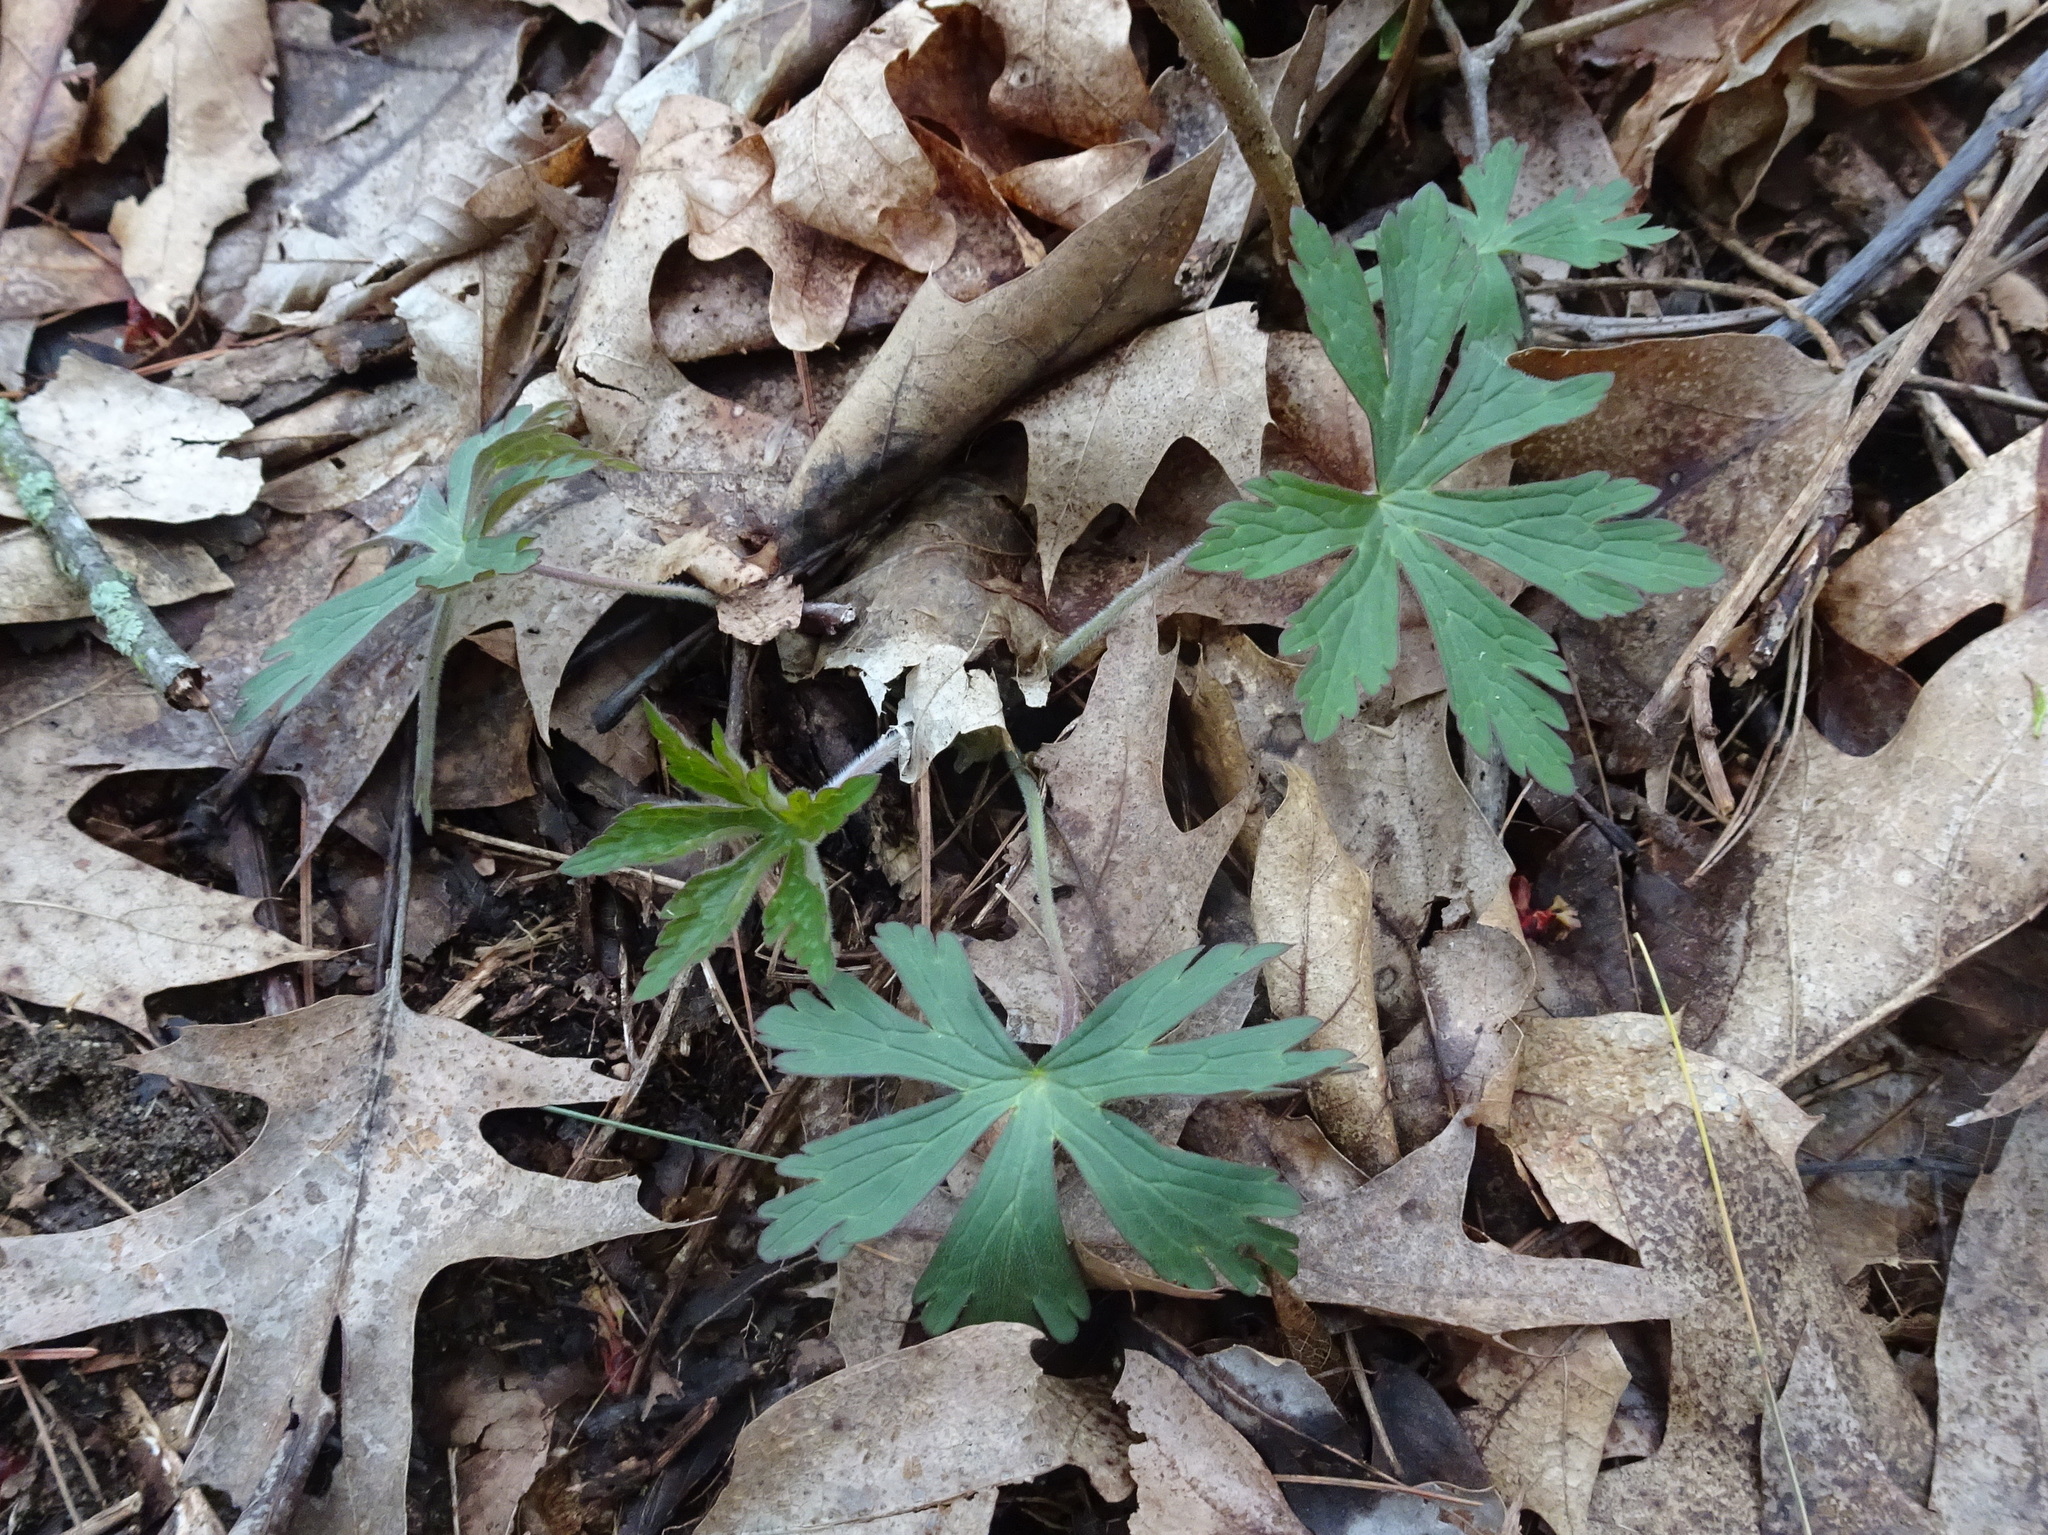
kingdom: Plantae
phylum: Tracheophyta
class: Magnoliopsida
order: Geraniales
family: Geraniaceae
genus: Geranium
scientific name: Geranium maculatum
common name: Spotted geranium
